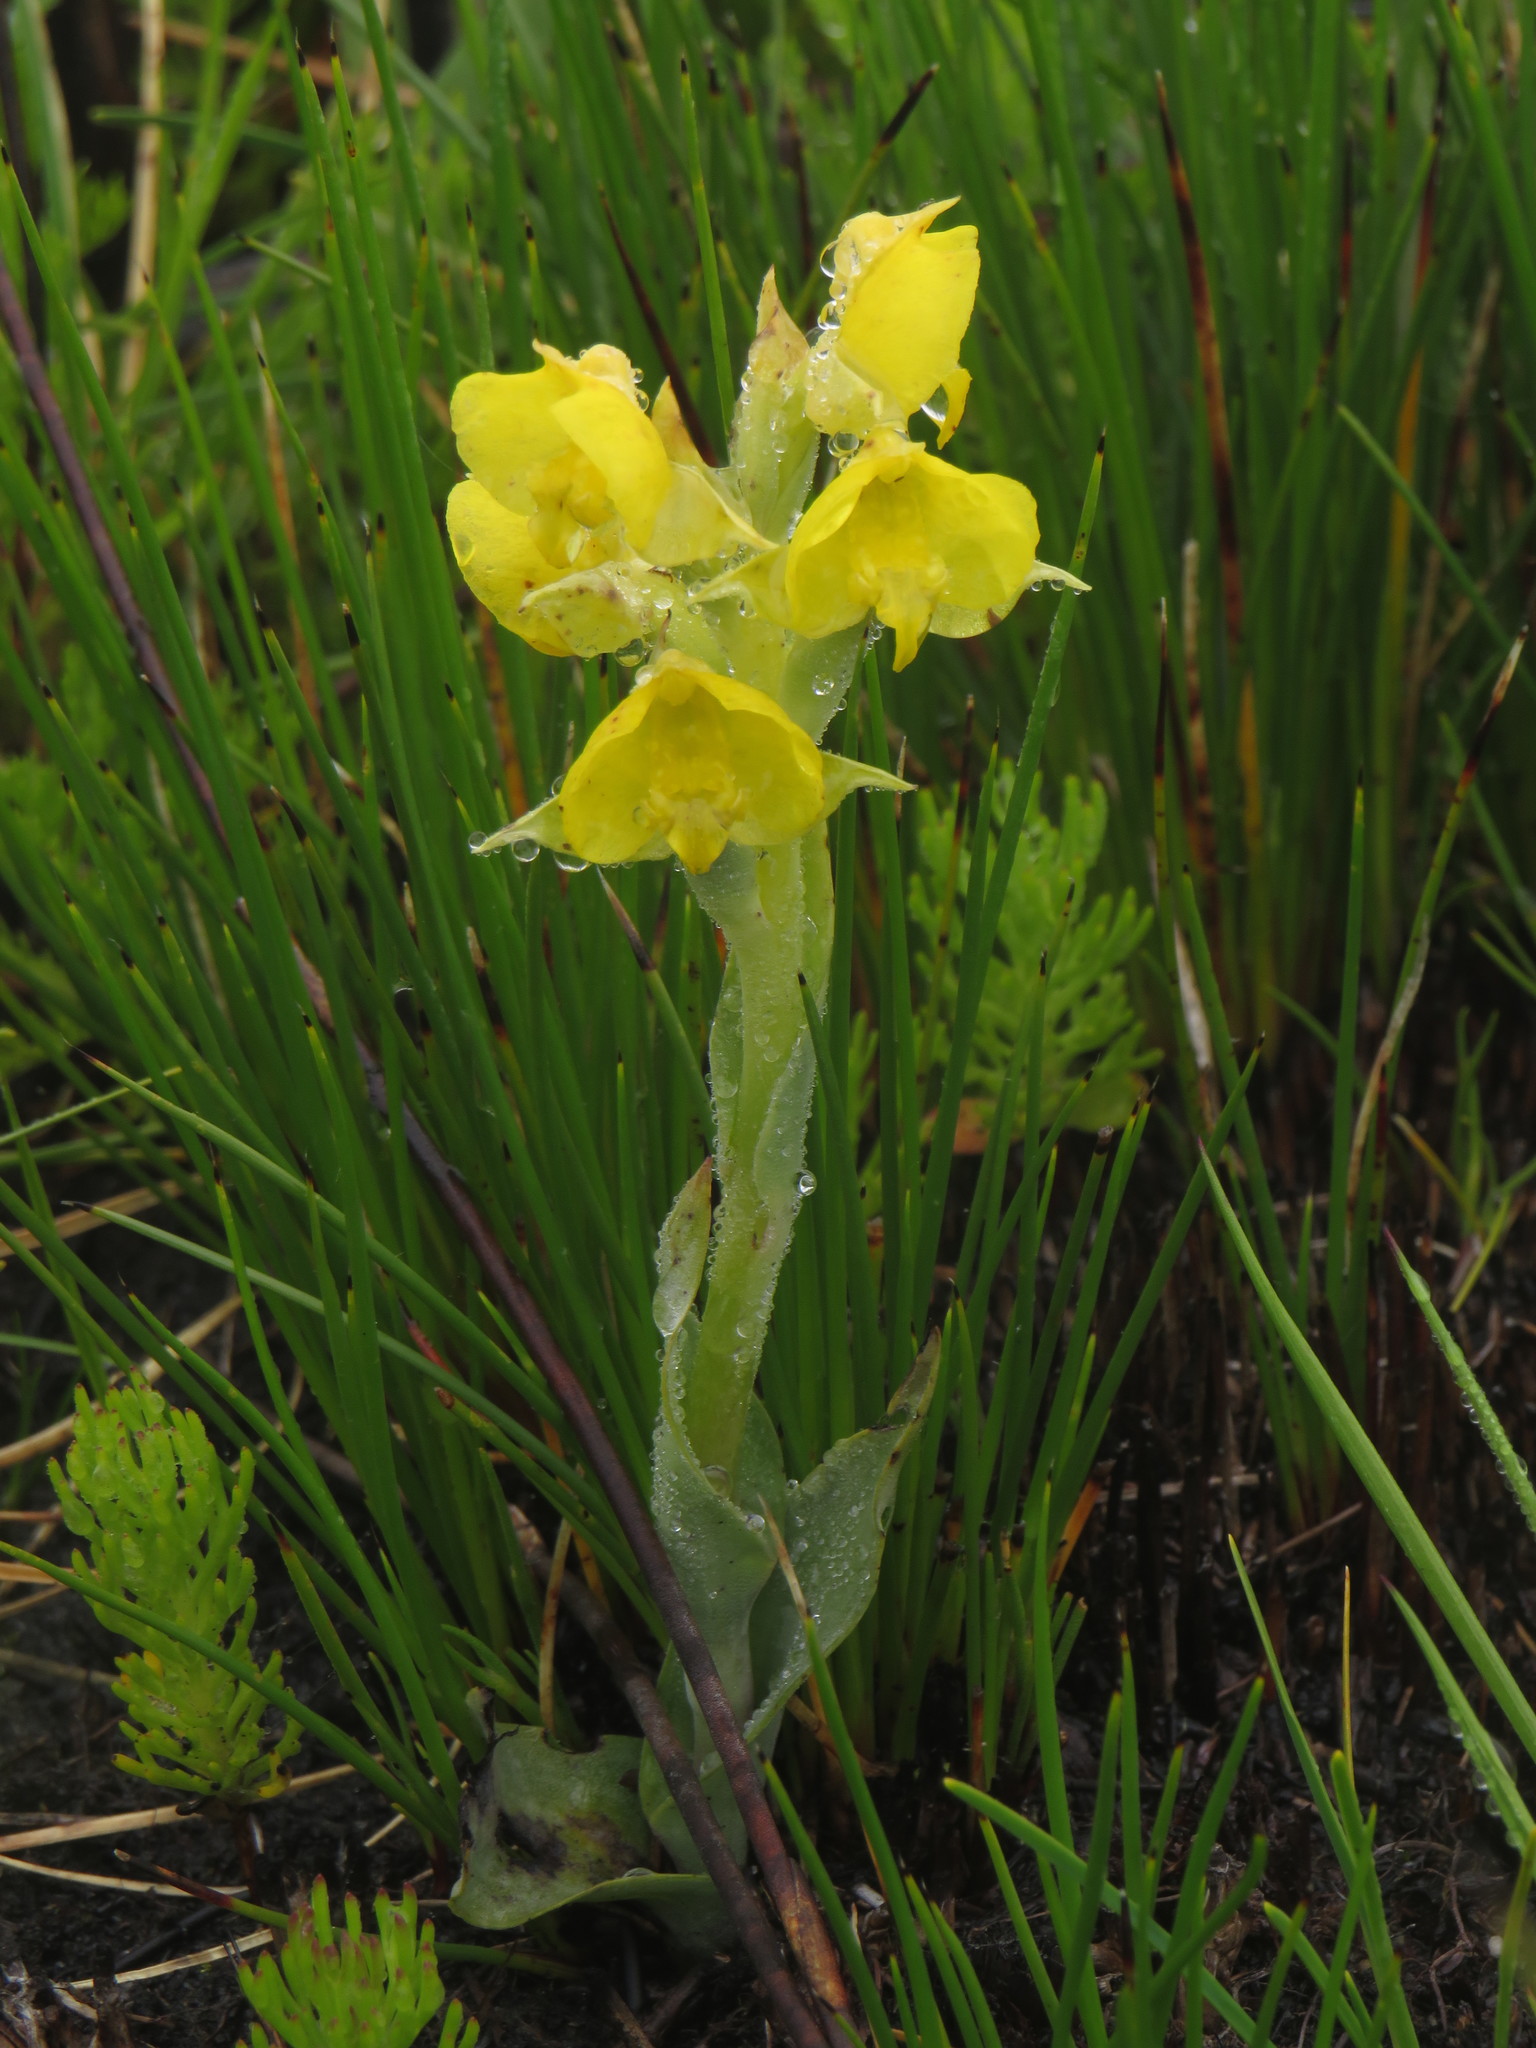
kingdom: Plantae
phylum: Tracheophyta
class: Liliopsida
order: Asparagales
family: Orchidaceae
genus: Pterygodium
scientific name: Pterygodium acutifolium
